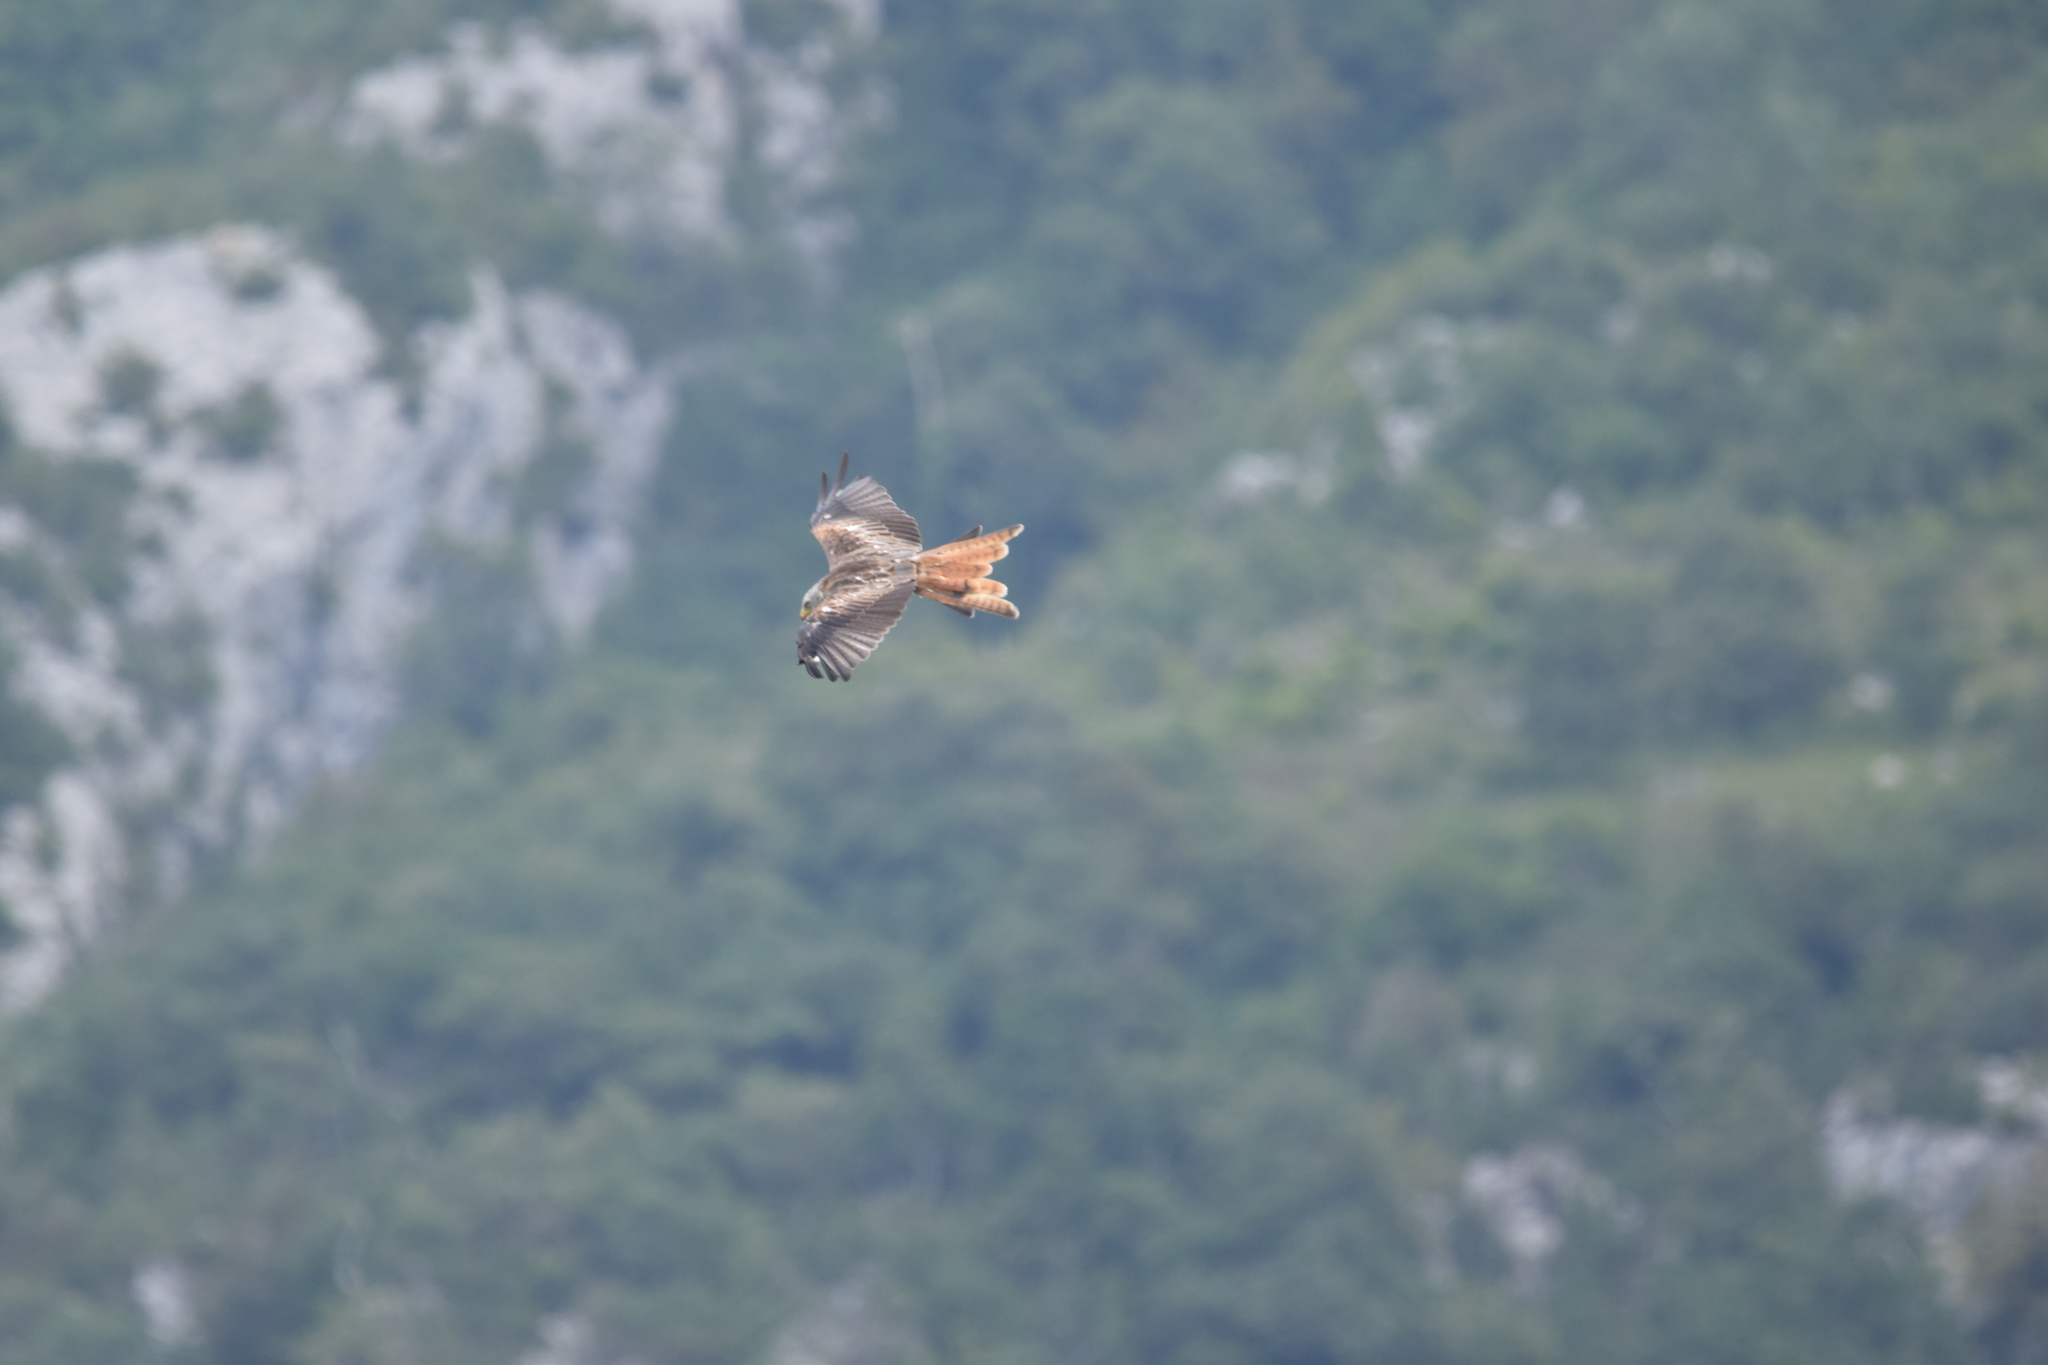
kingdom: Animalia
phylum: Chordata
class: Aves
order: Accipitriformes
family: Accipitridae
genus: Milvus
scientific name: Milvus milvus
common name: Red kite
